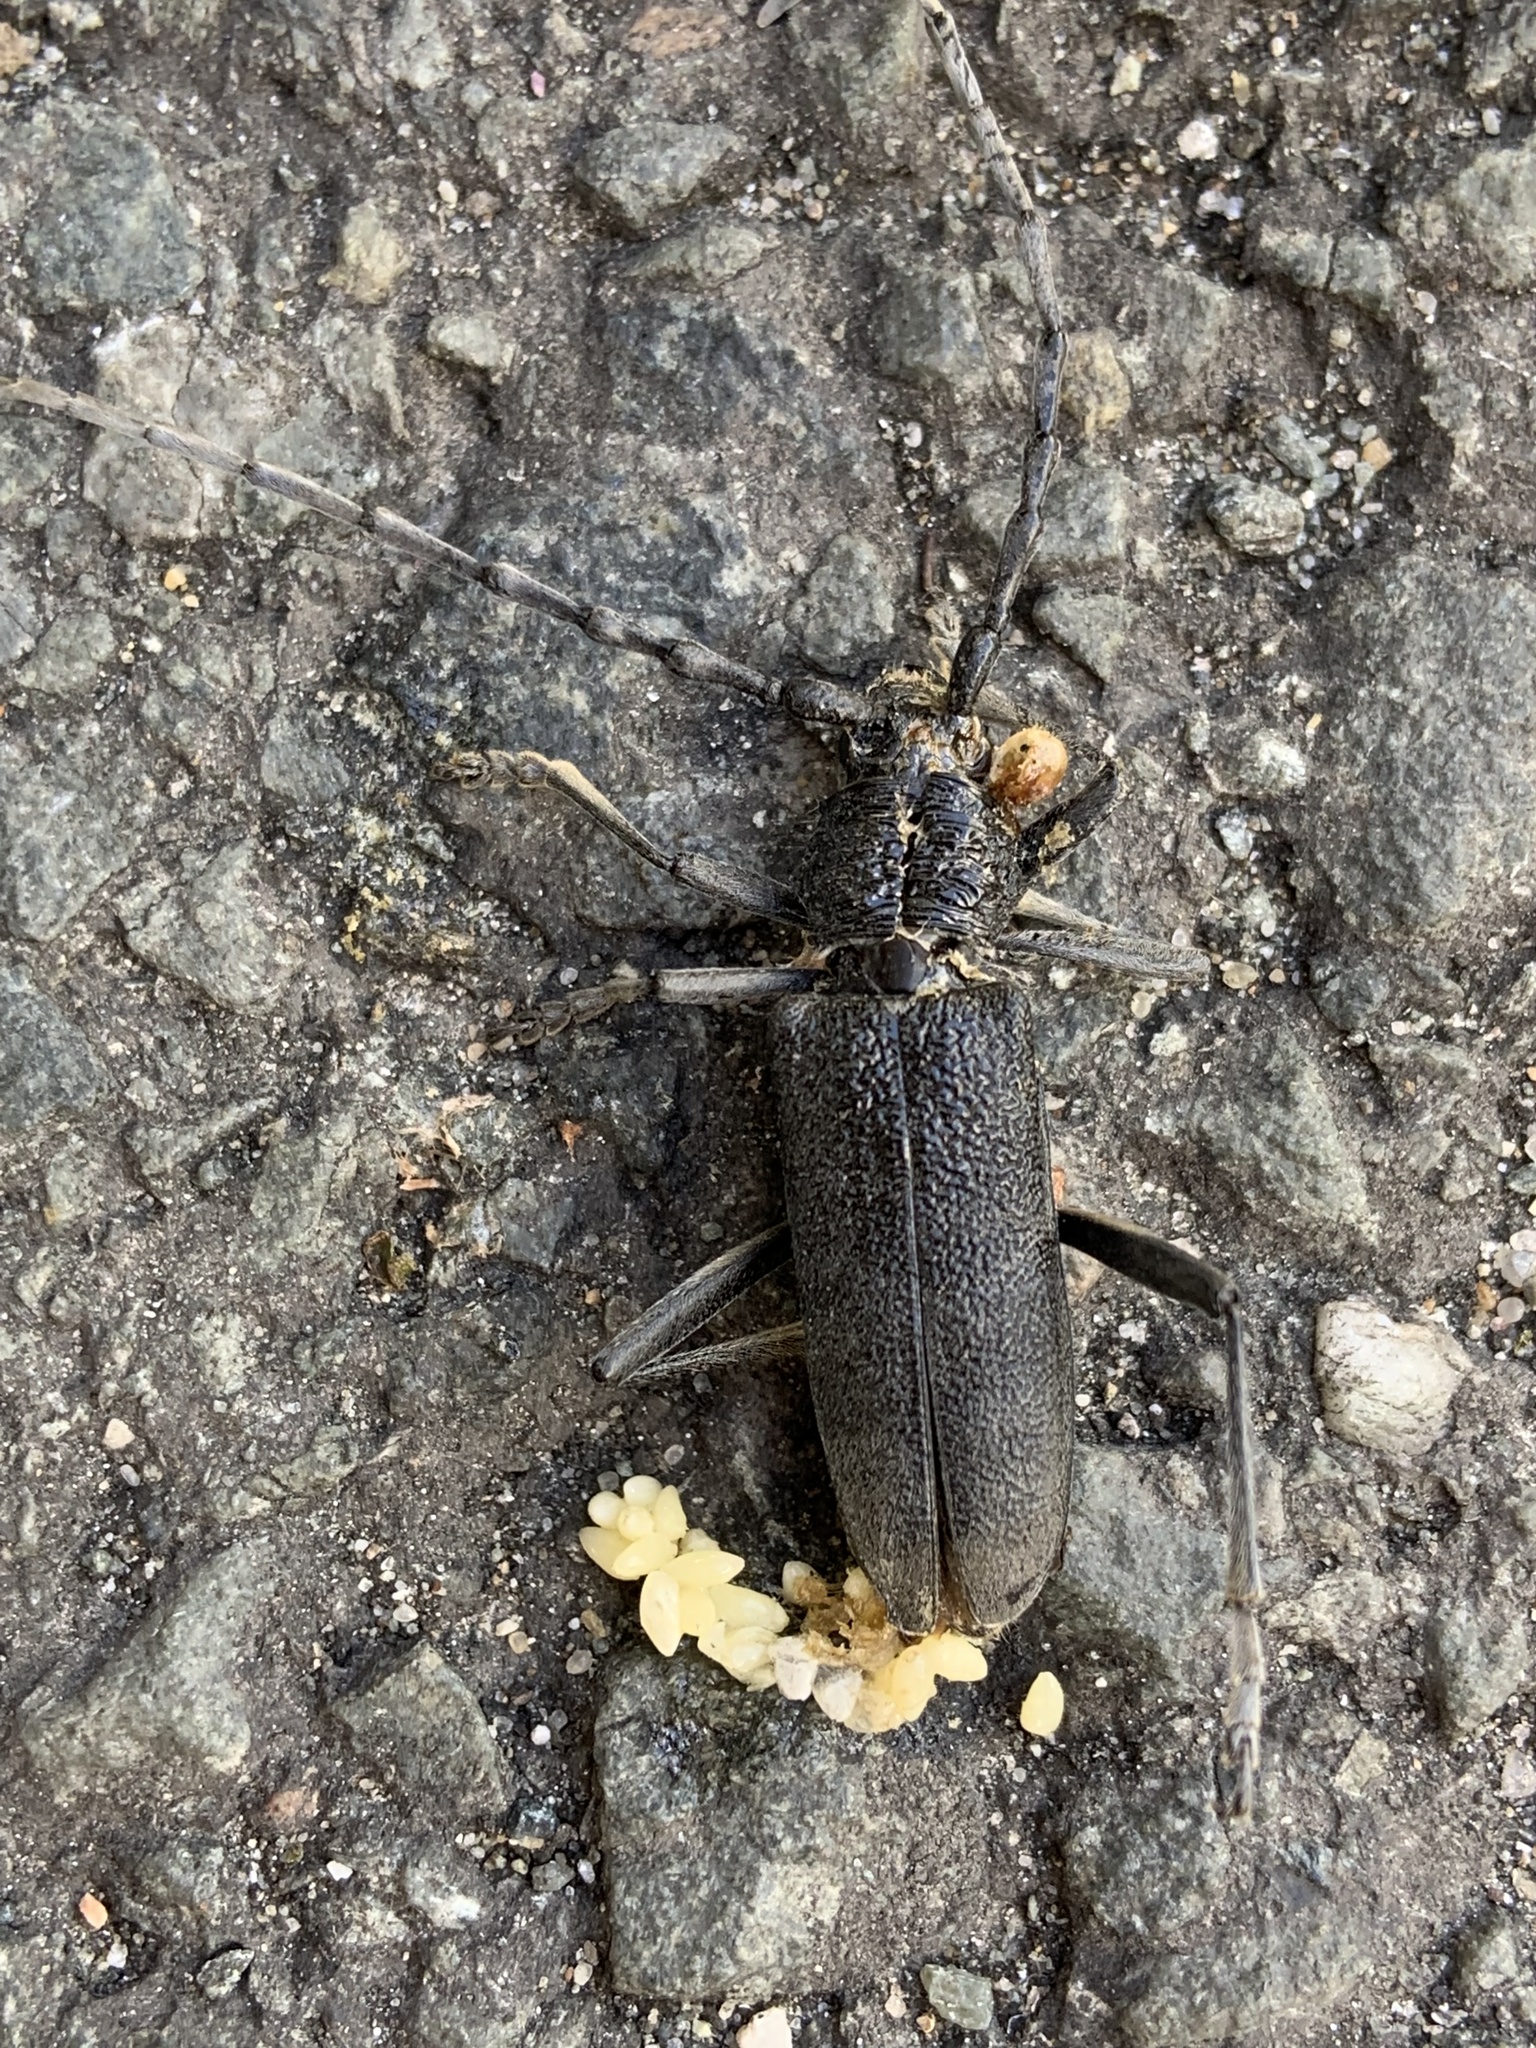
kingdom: Animalia
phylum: Arthropoda
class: Insecta
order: Coleoptera
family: Cerambycidae
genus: Cerambyx
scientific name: Cerambyx scopolii
